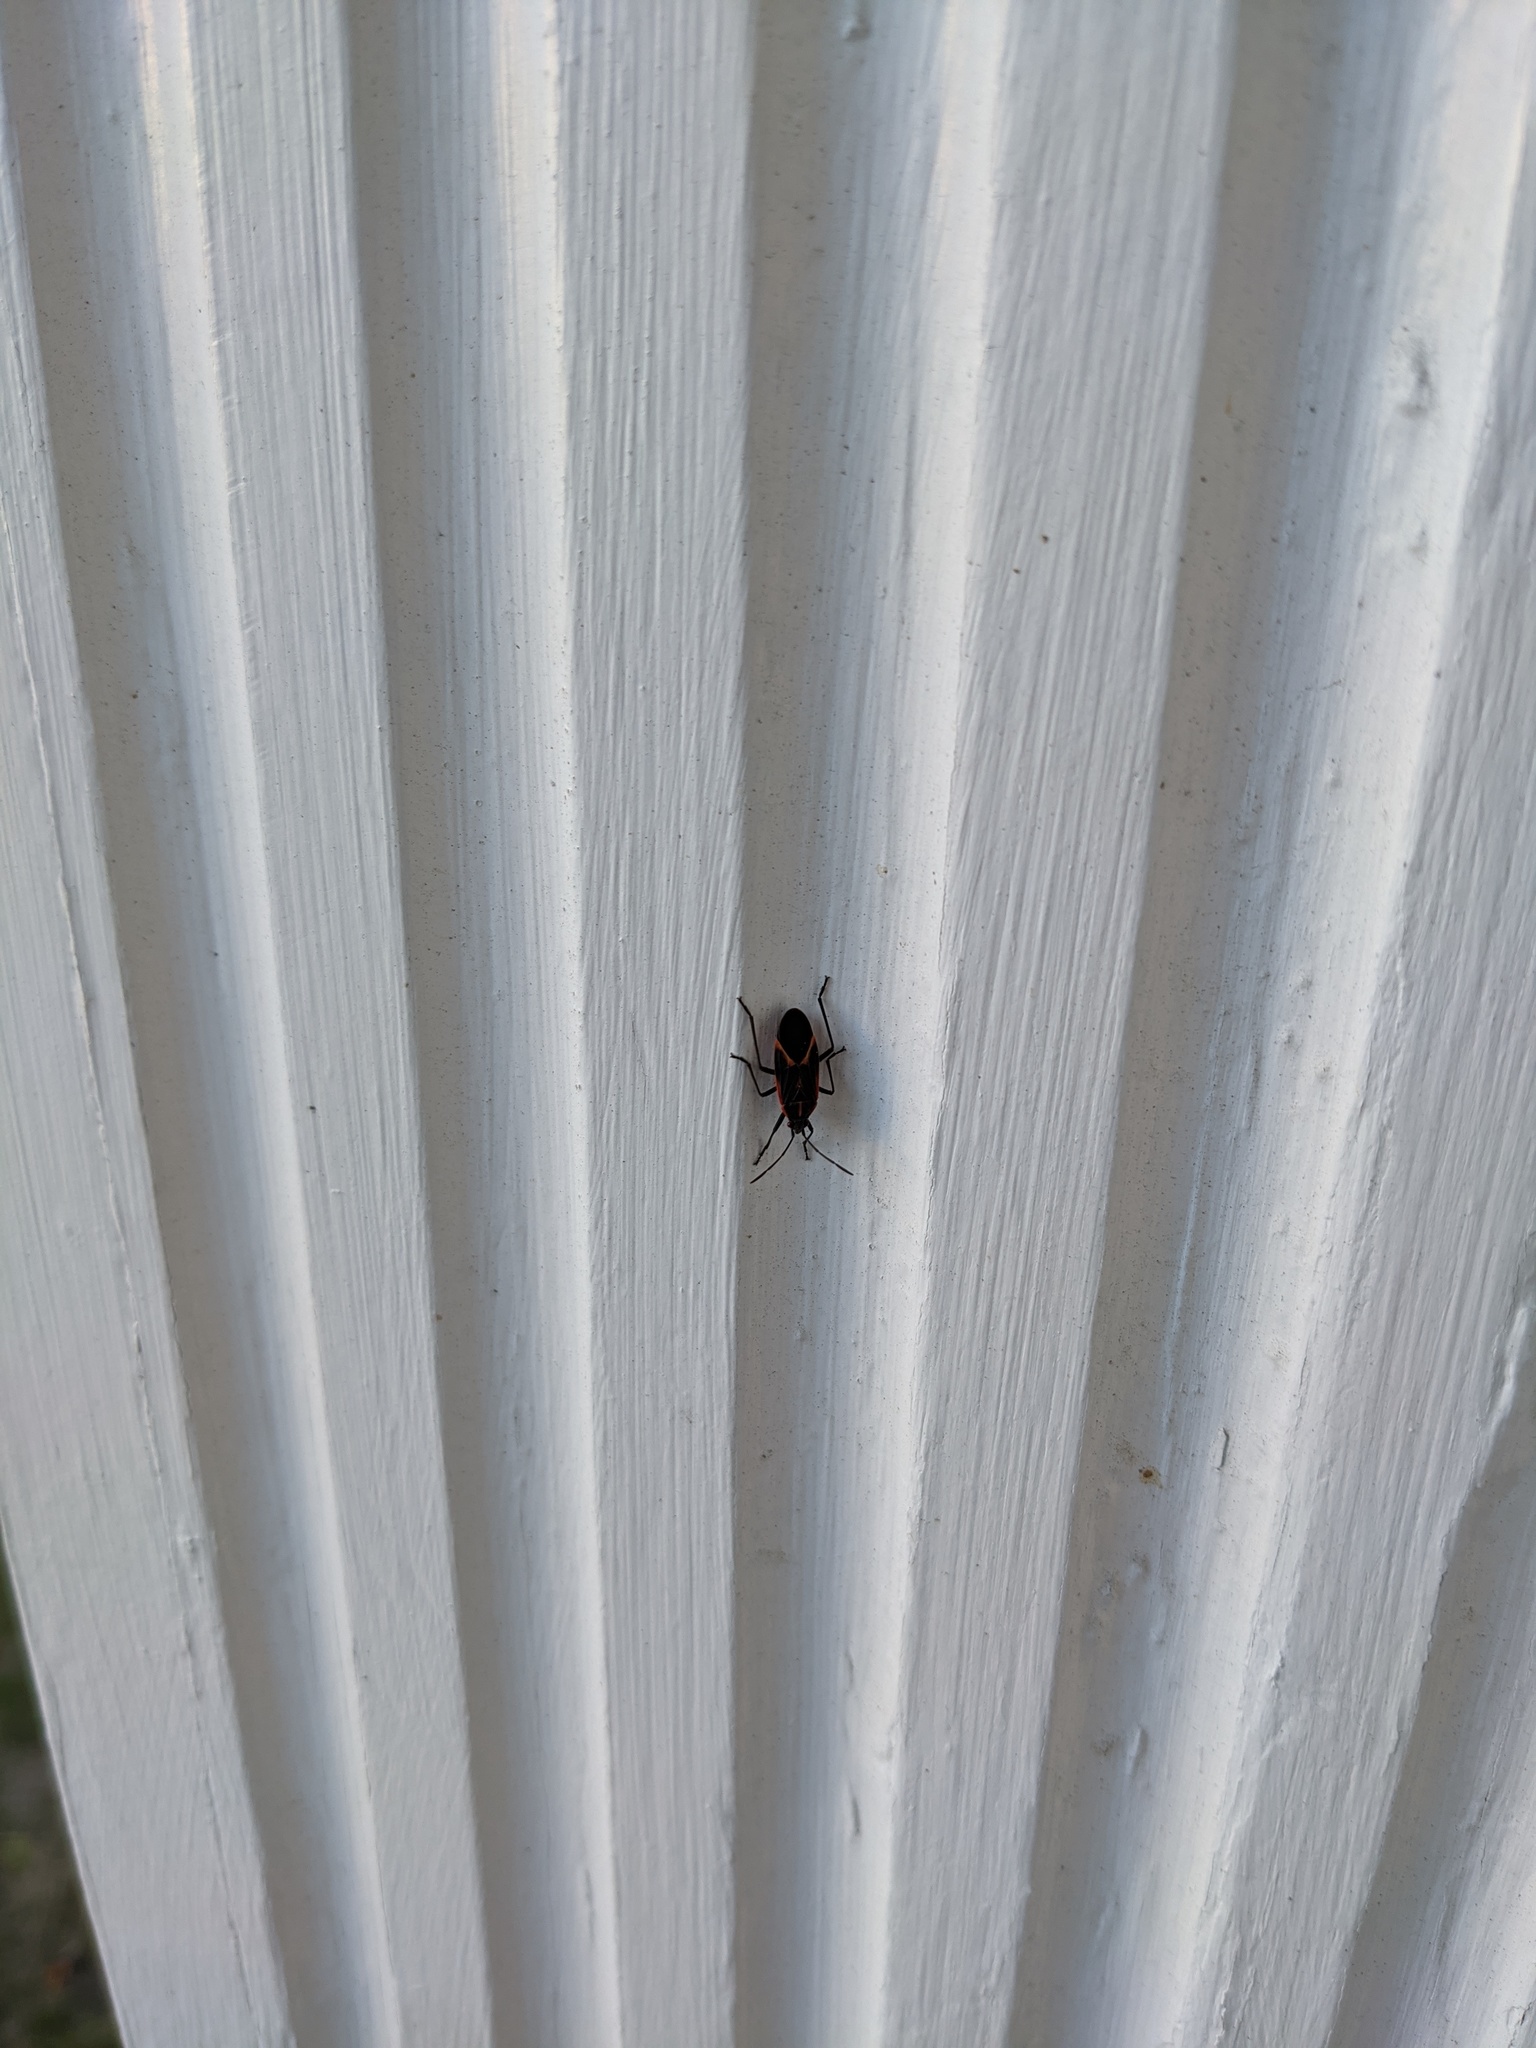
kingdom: Animalia
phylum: Arthropoda
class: Insecta
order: Hemiptera
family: Rhopalidae
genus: Boisea
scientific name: Boisea trivittata
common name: Boxelder bug
